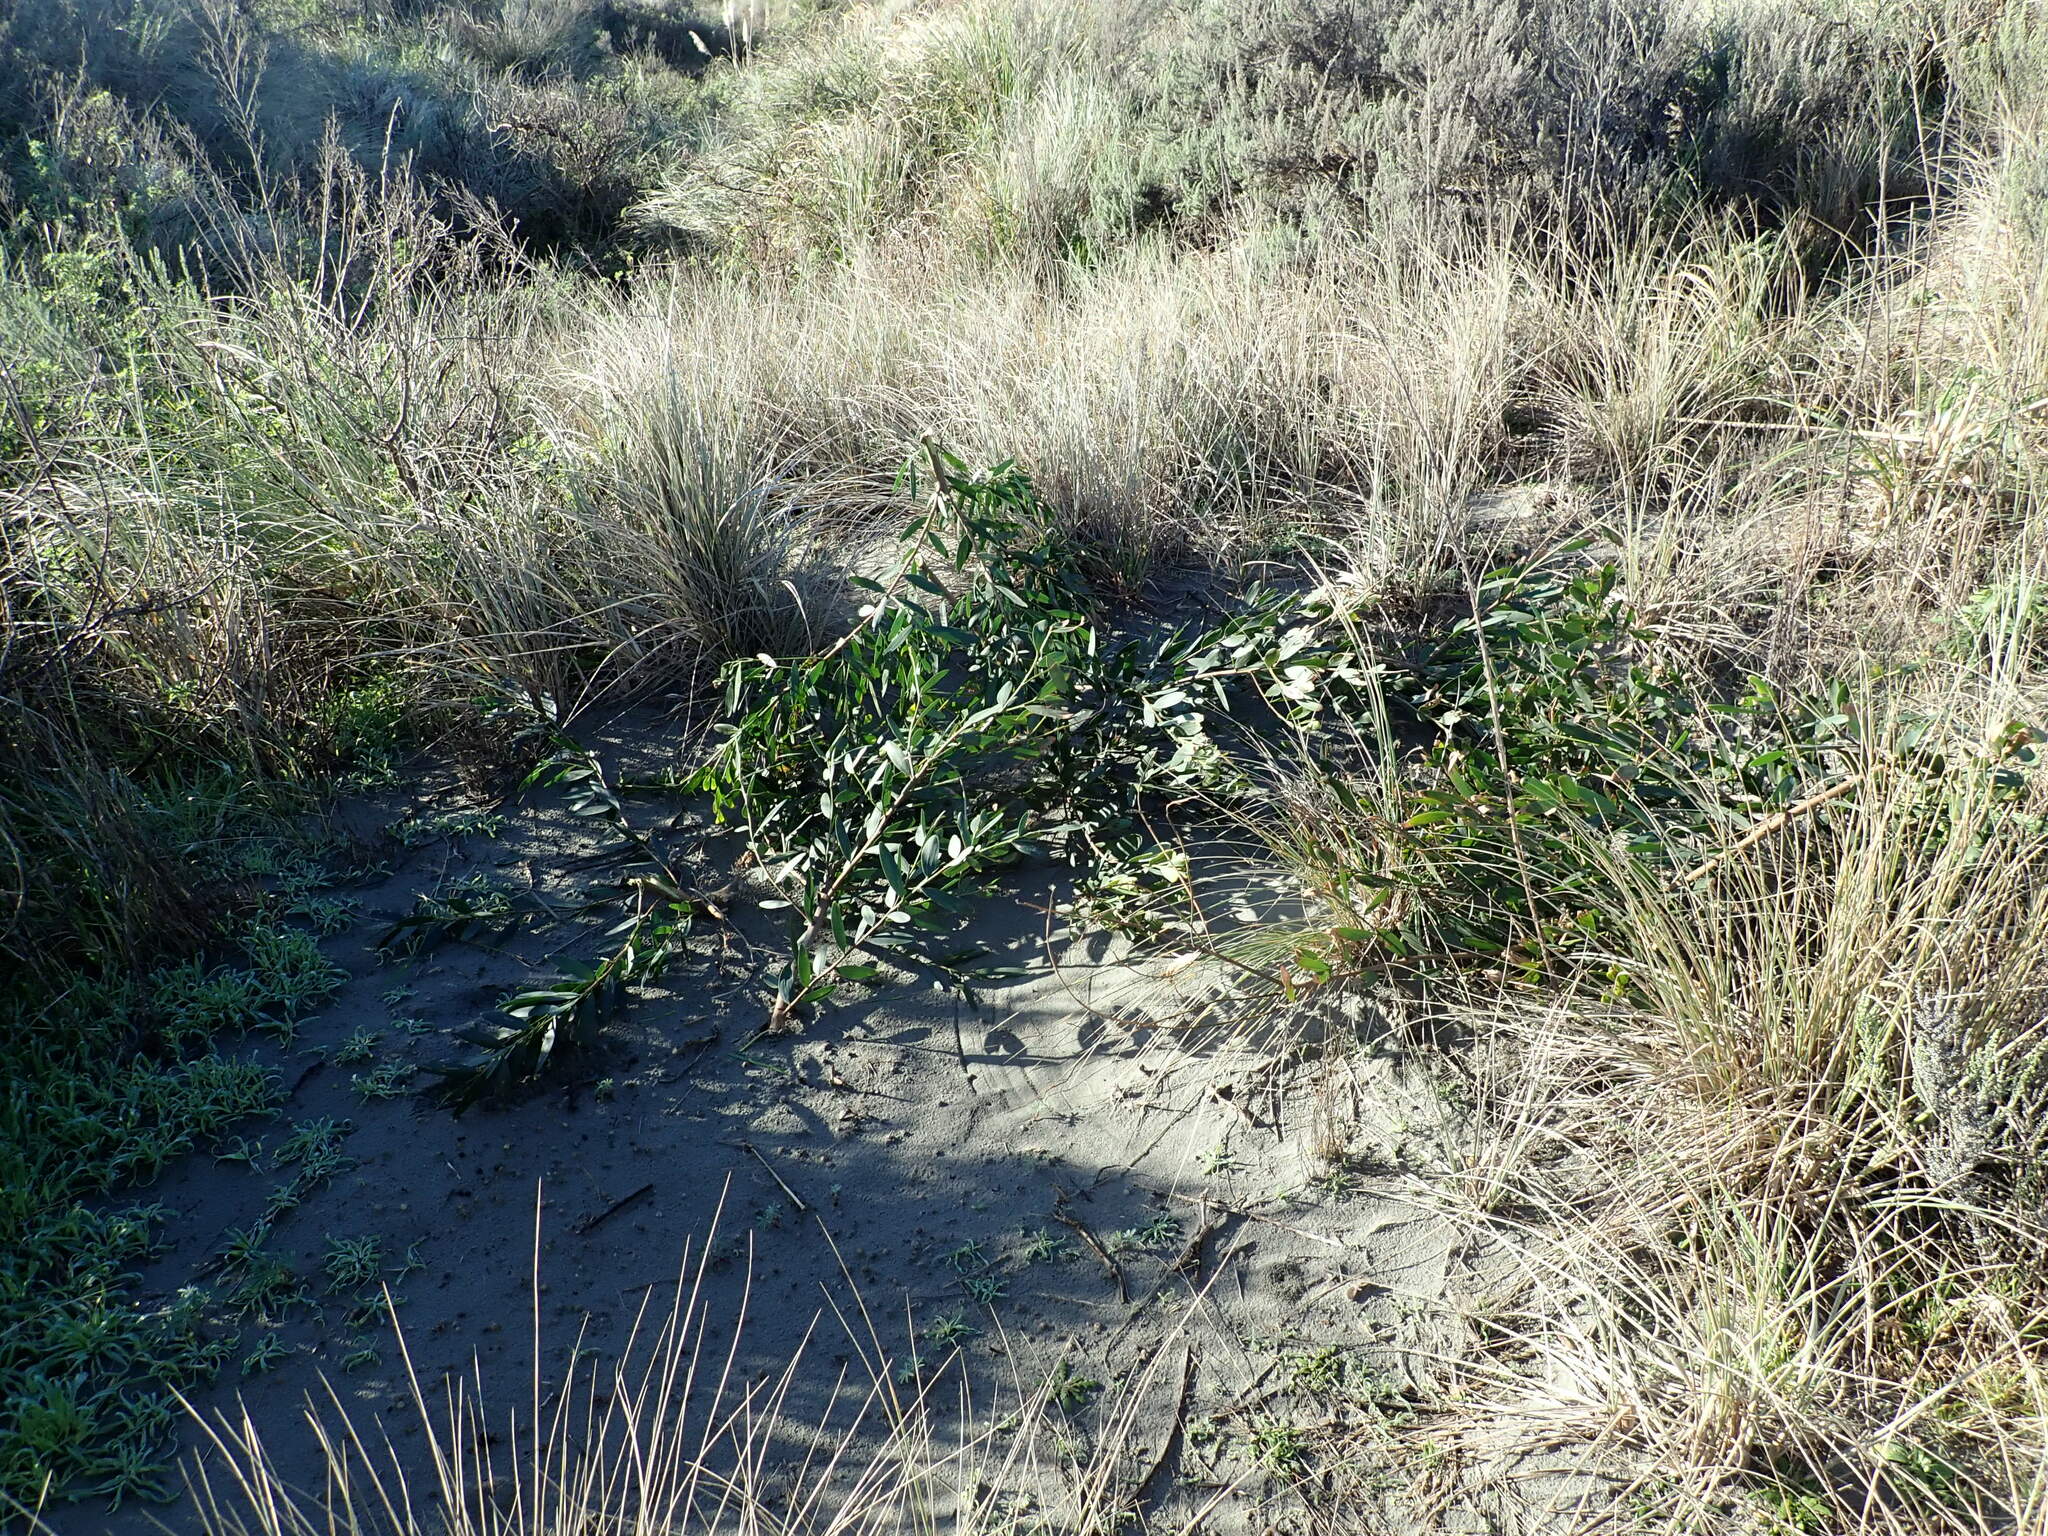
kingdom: Plantae
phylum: Tracheophyta
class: Magnoliopsida
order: Fabales
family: Fabaceae
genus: Acacia
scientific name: Acacia longifolia
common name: Sydney golden wattle
